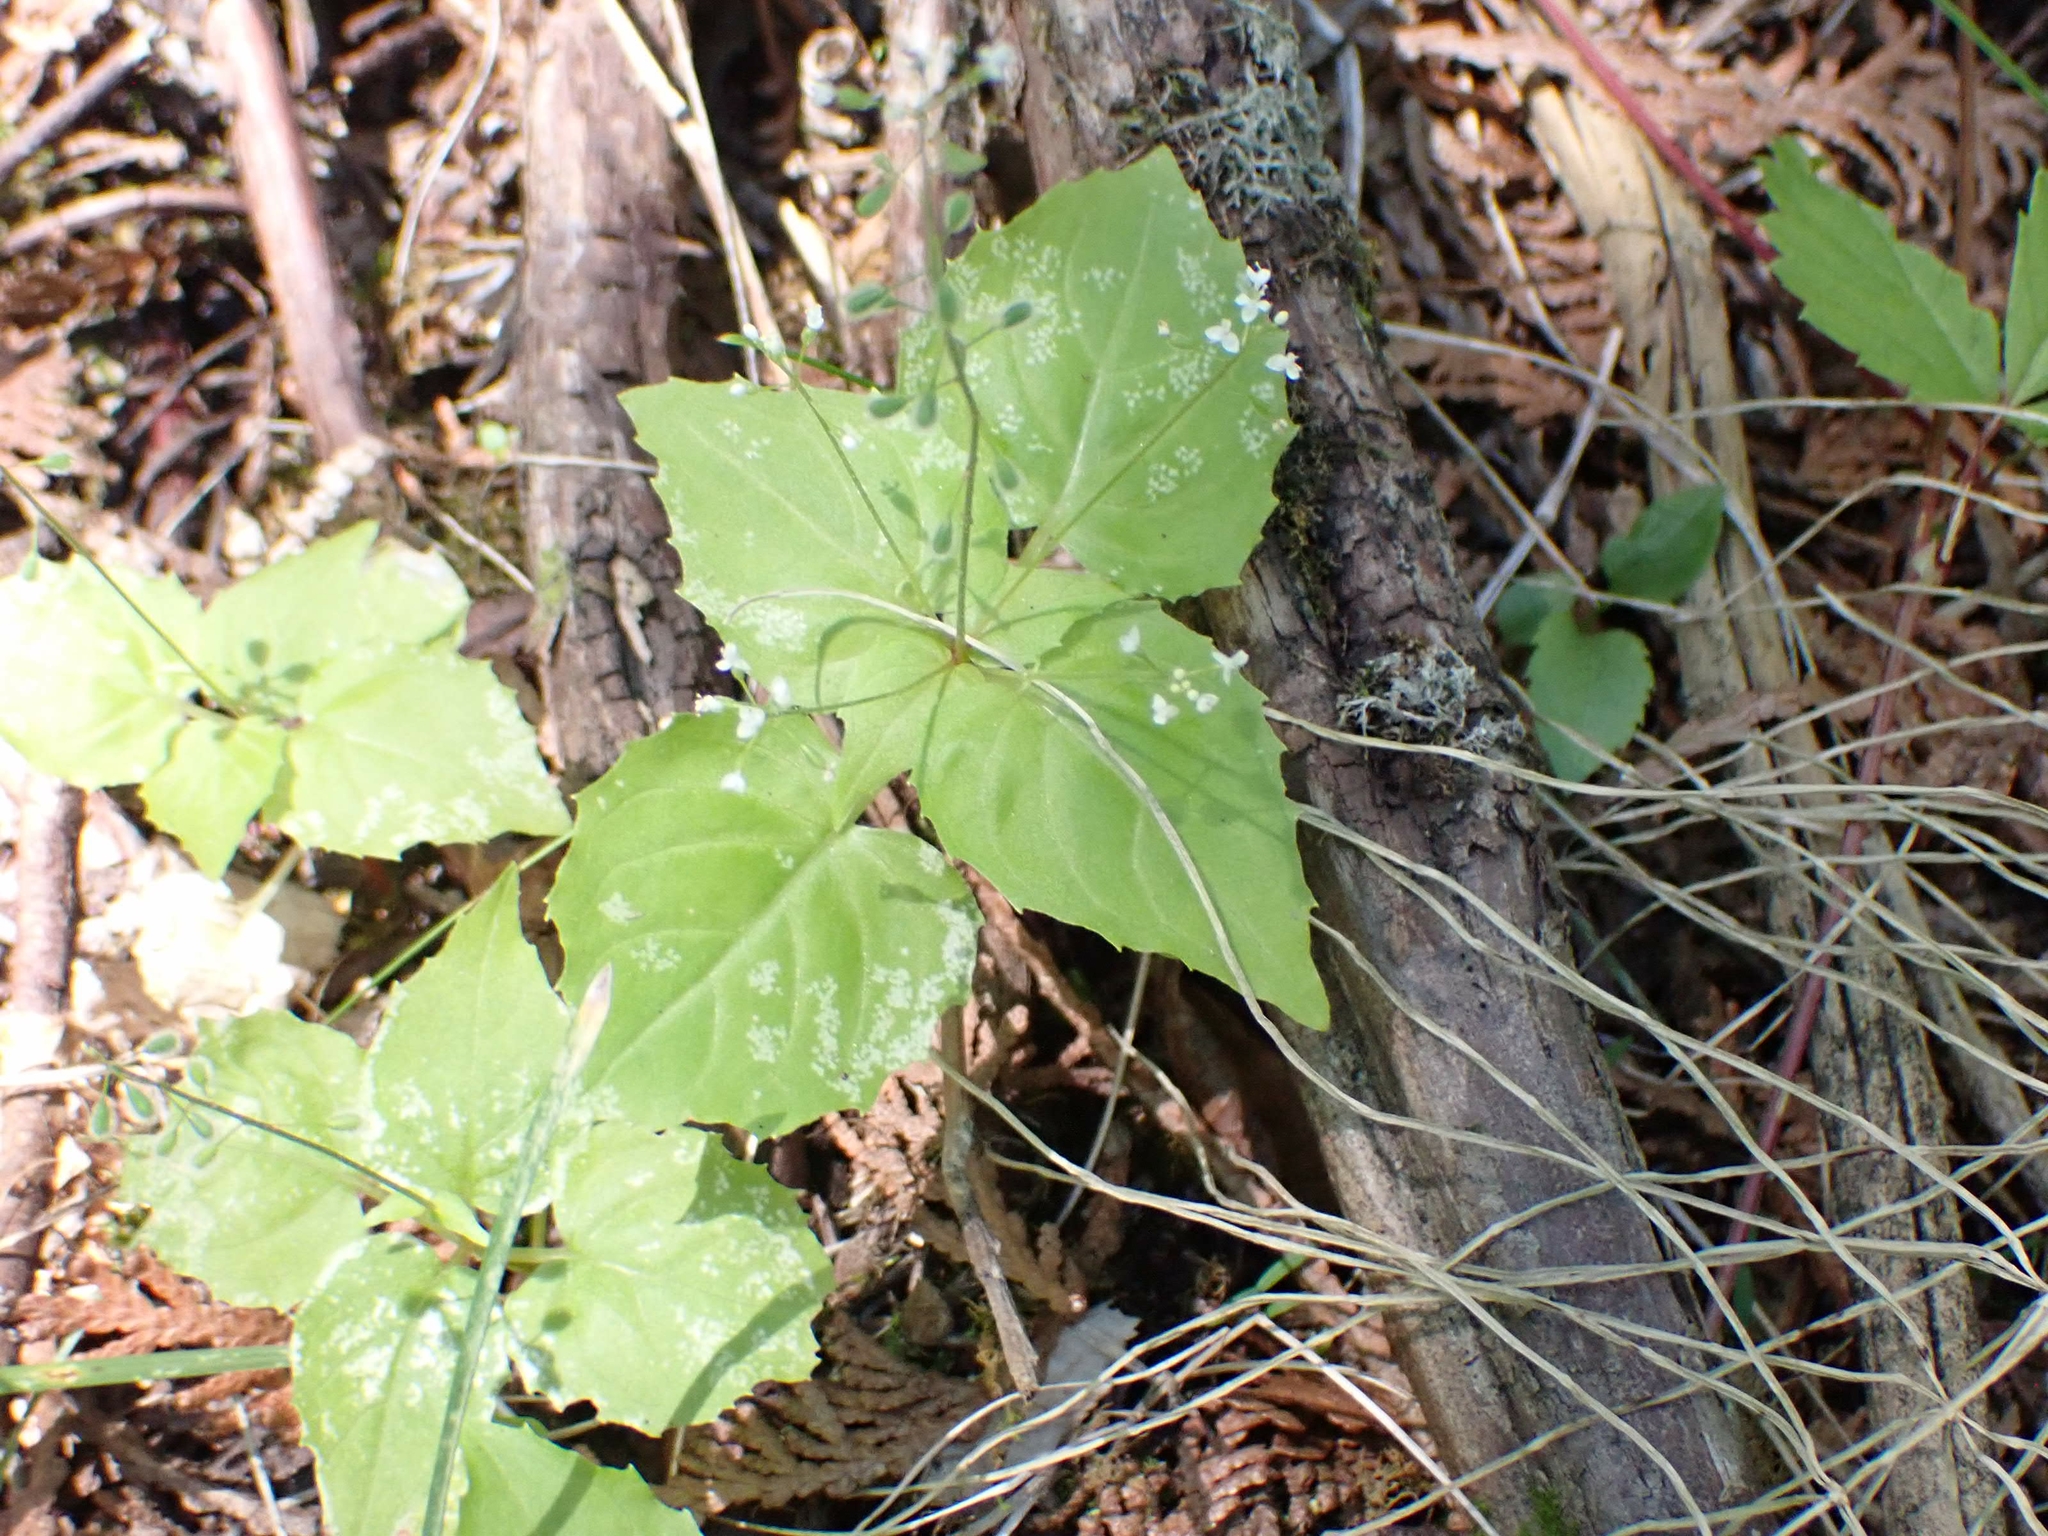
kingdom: Plantae
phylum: Tracheophyta
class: Magnoliopsida
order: Myrtales
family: Onagraceae
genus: Circaea
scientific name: Circaea alpina
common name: Alpine enchanter's-nightshade
